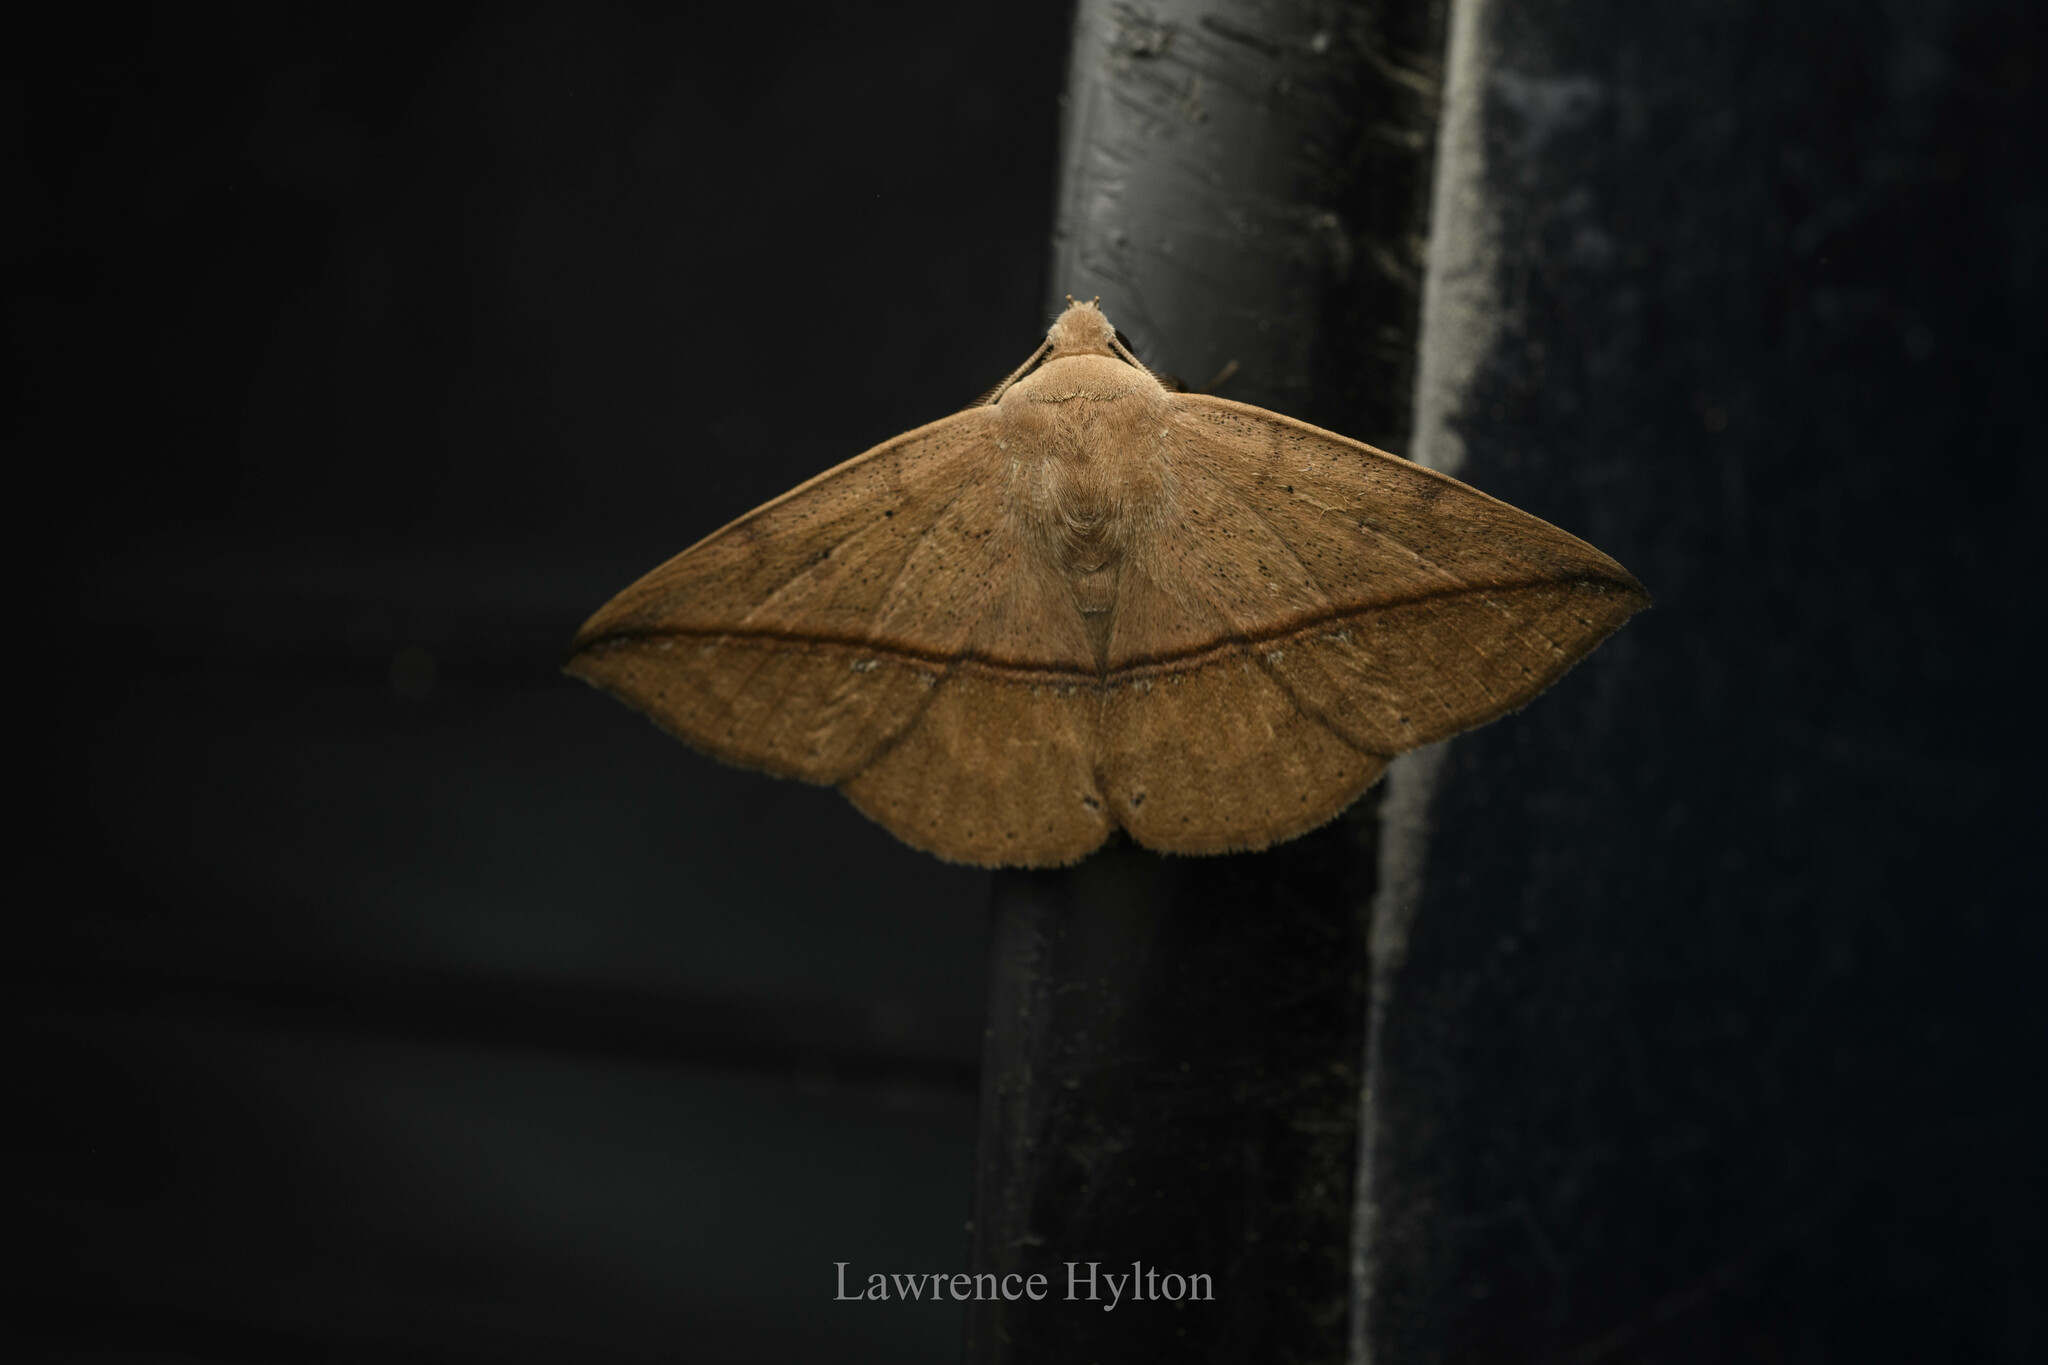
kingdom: Animalia
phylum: Arthropoda
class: Insecta
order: Lepidoptera
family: Erebidae
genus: Ugia
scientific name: Ugia purpurea
